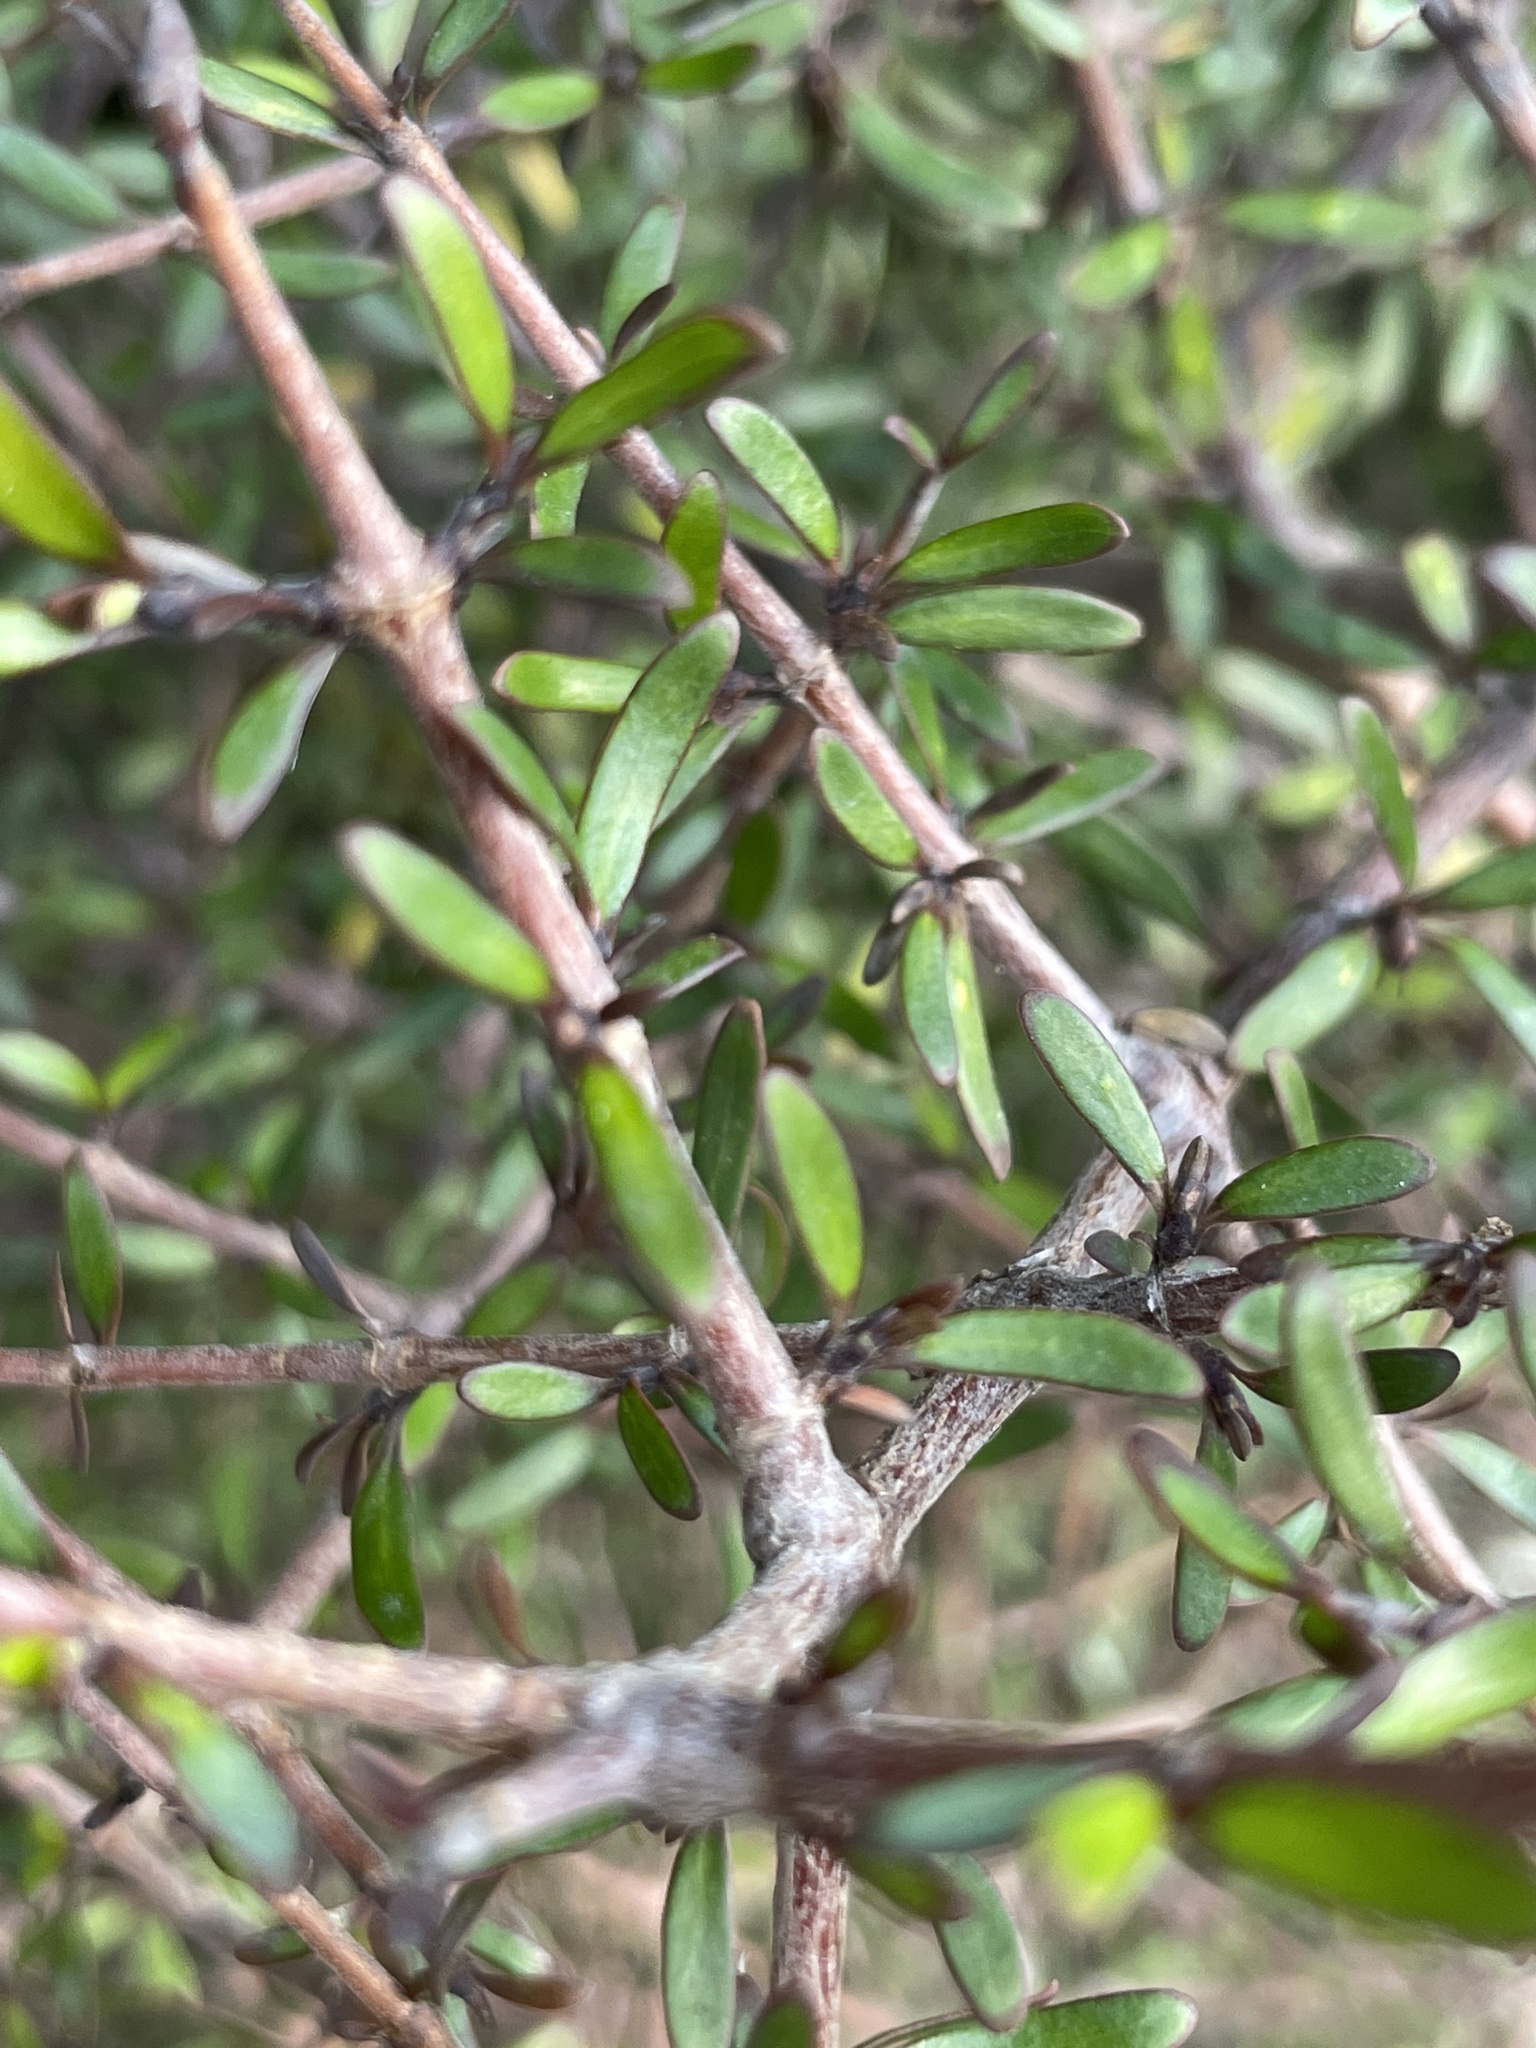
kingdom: Plantae
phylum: Tracheophyta
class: Magnoliopsida
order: Gentianales
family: Rubiaceae
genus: Coprosma
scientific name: Coprosma propinqua
